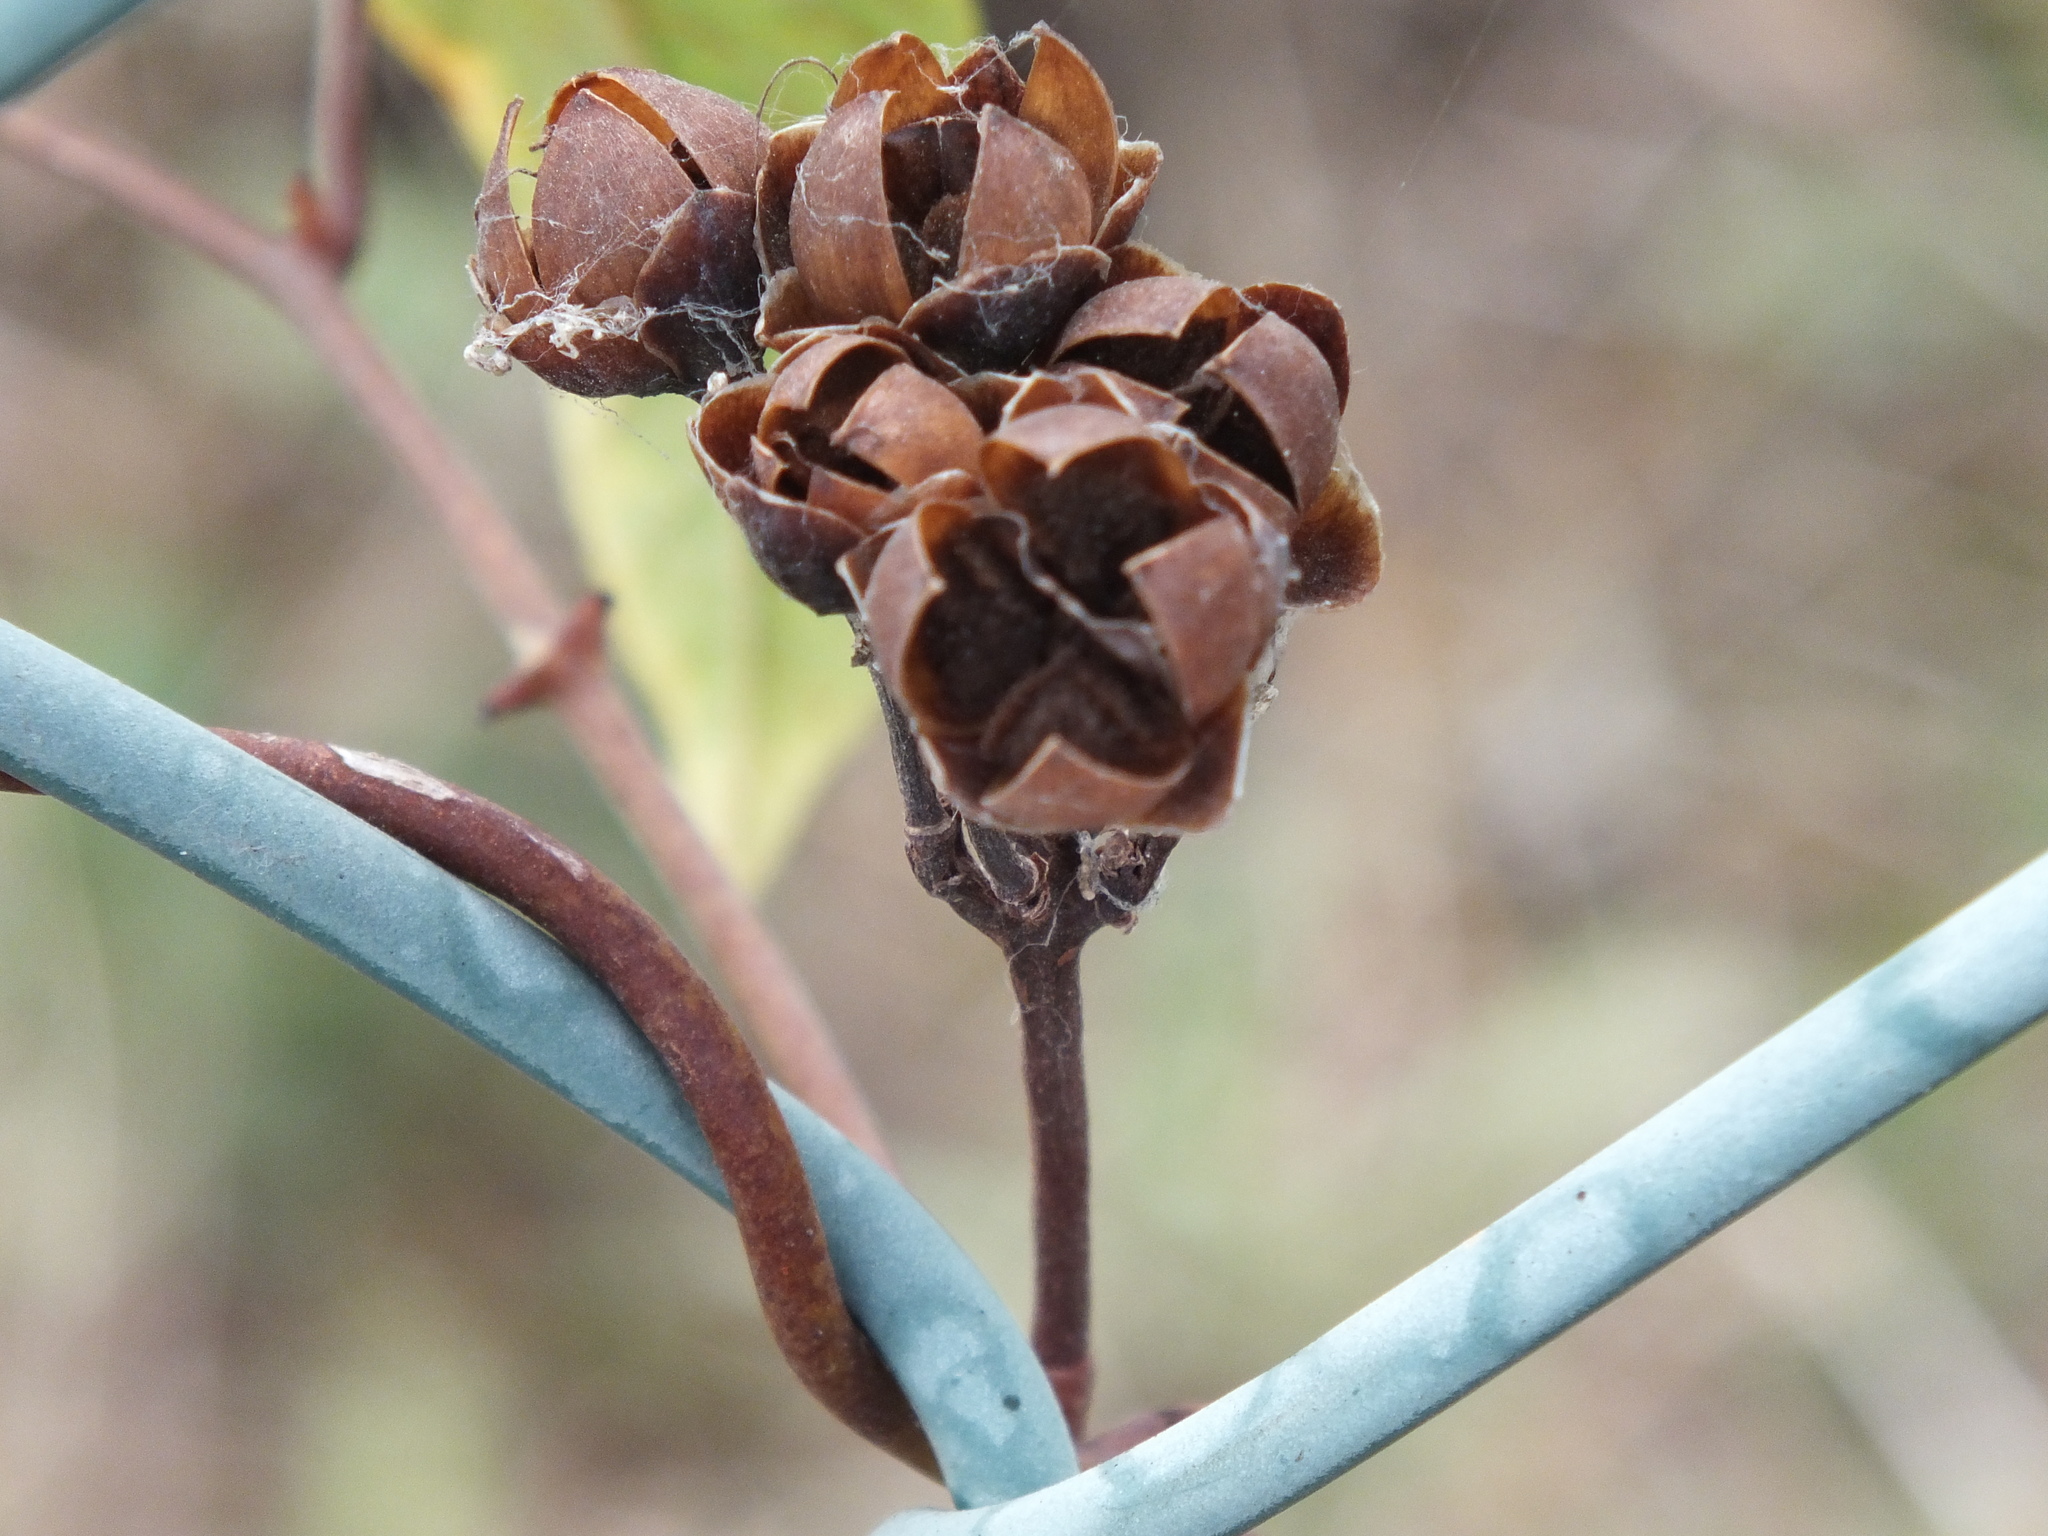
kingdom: Plantae
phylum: Tracheophyta
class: Magnoliopsida
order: Solanales
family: Convolvulaceae
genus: Camonea
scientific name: Camonea umbellata
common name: Hogvine
